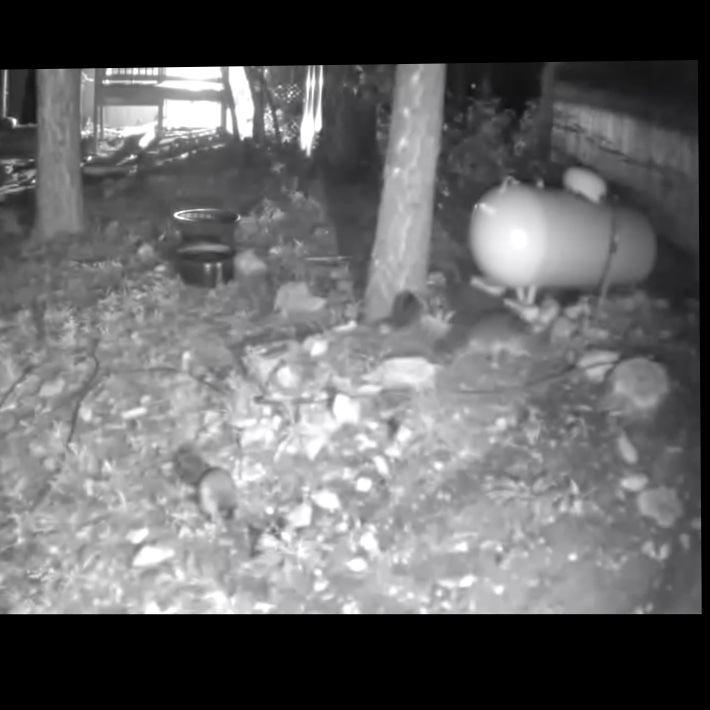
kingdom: Animalia
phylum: Chordata
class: Mammalia
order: Carnivora
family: Procyonidae
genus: Procyon
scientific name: Procyon lotor
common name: Raccoon
